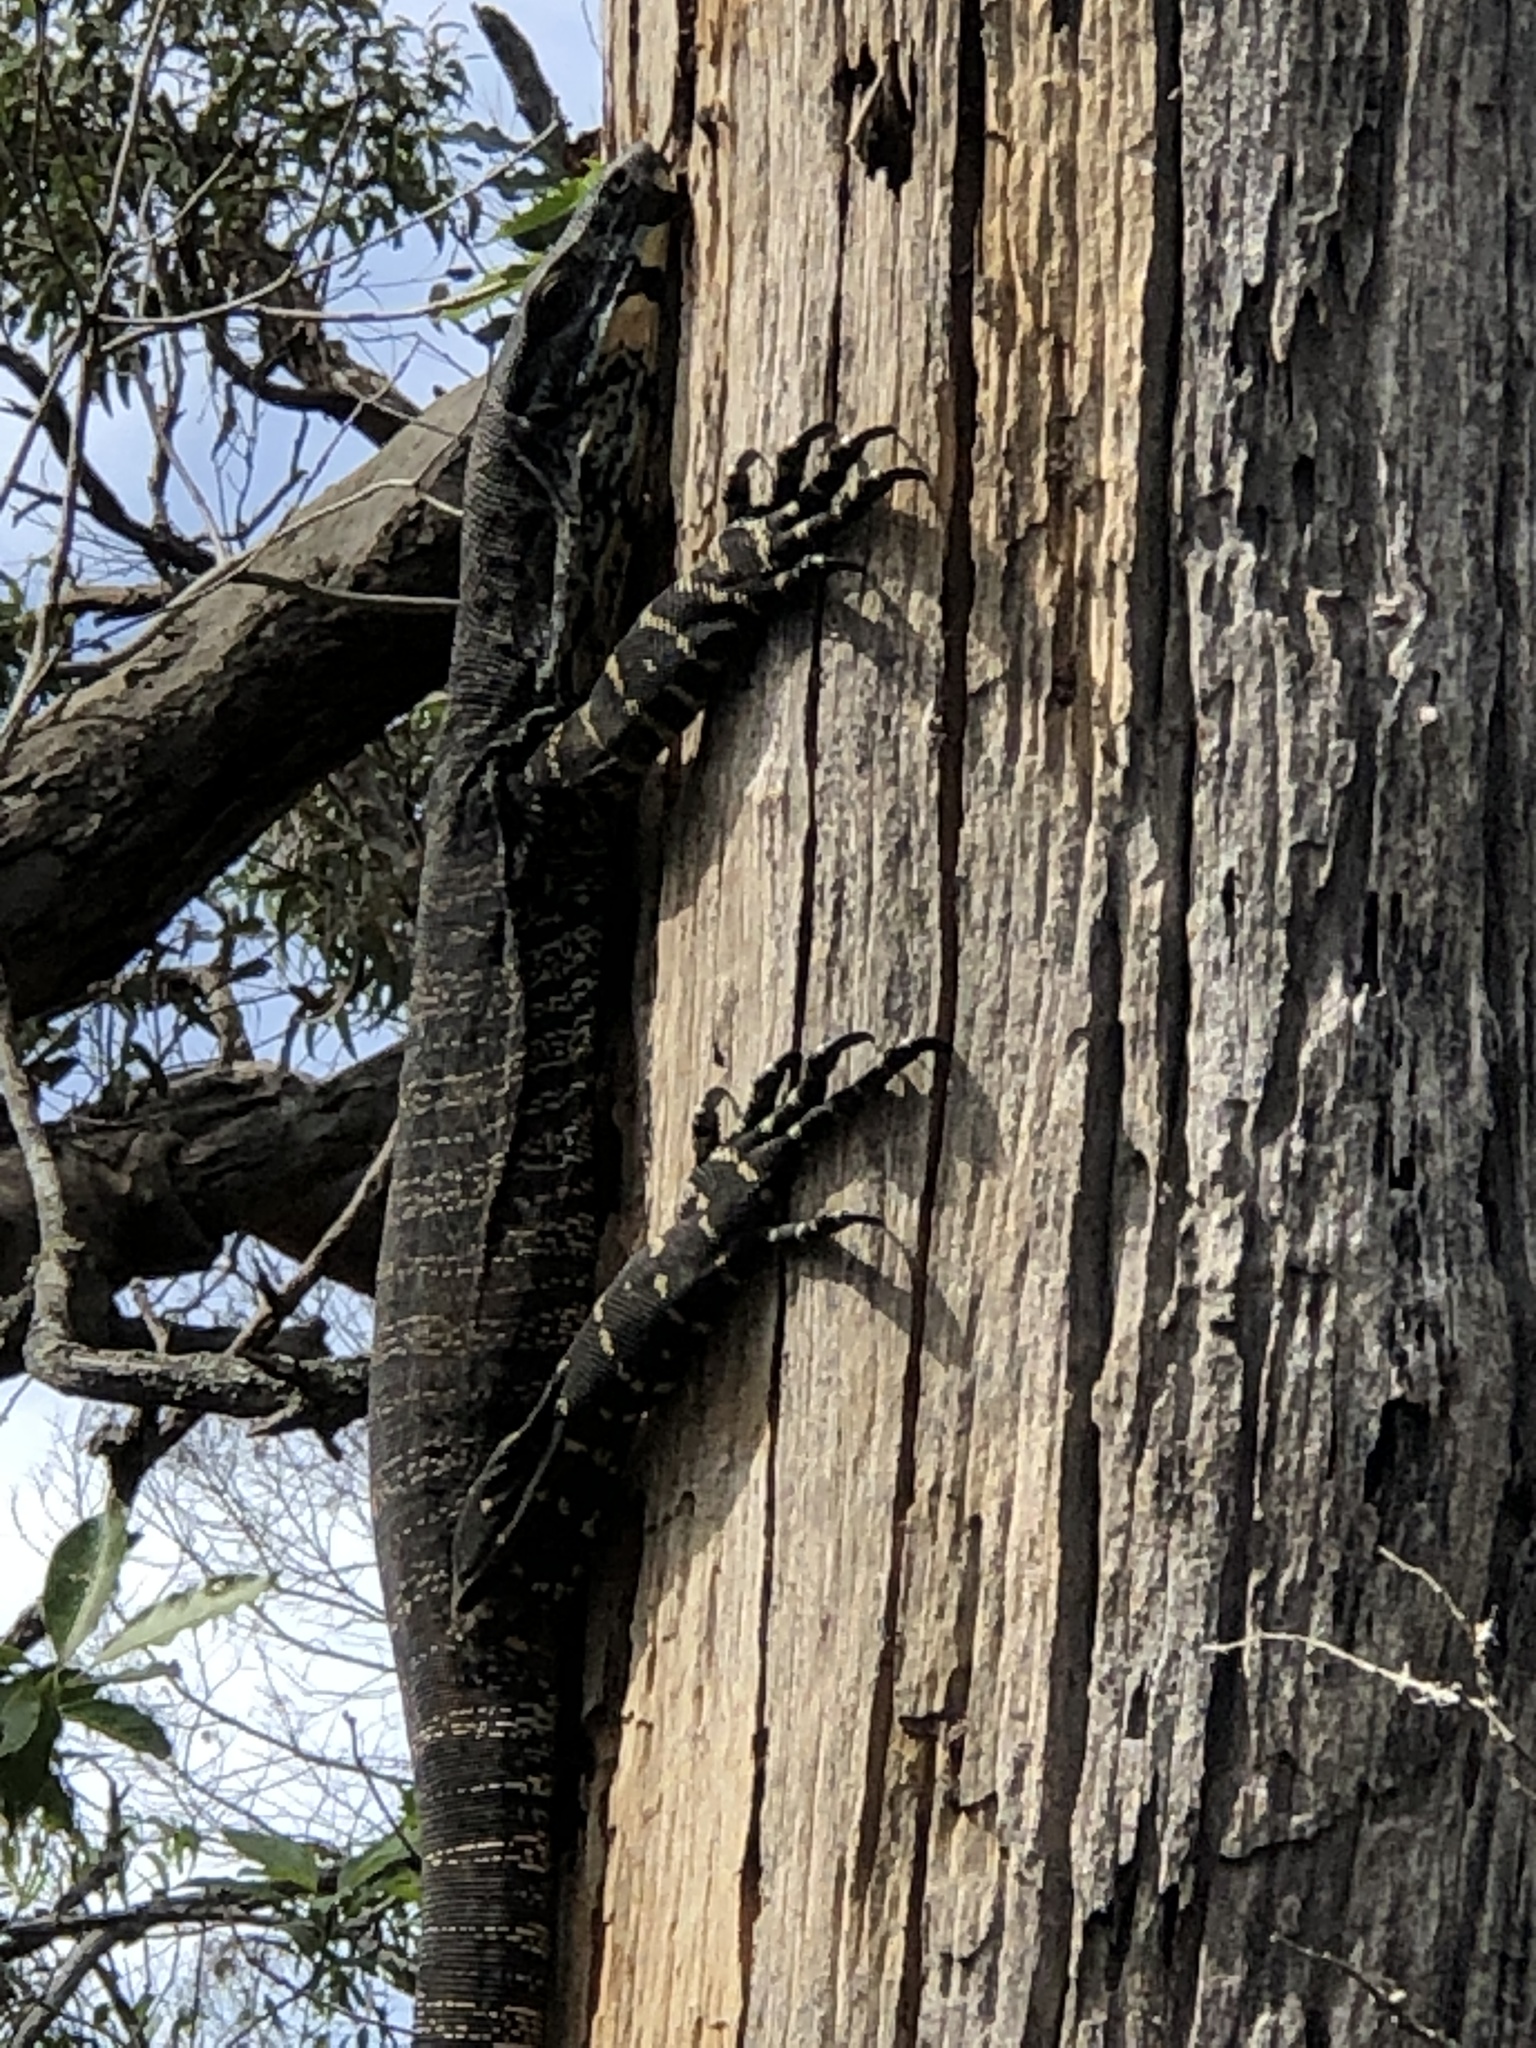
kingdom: Animalia
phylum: Chordata
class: Squamata
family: Varanidae
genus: Varanus
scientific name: Varanus varius
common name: Lace monitor
